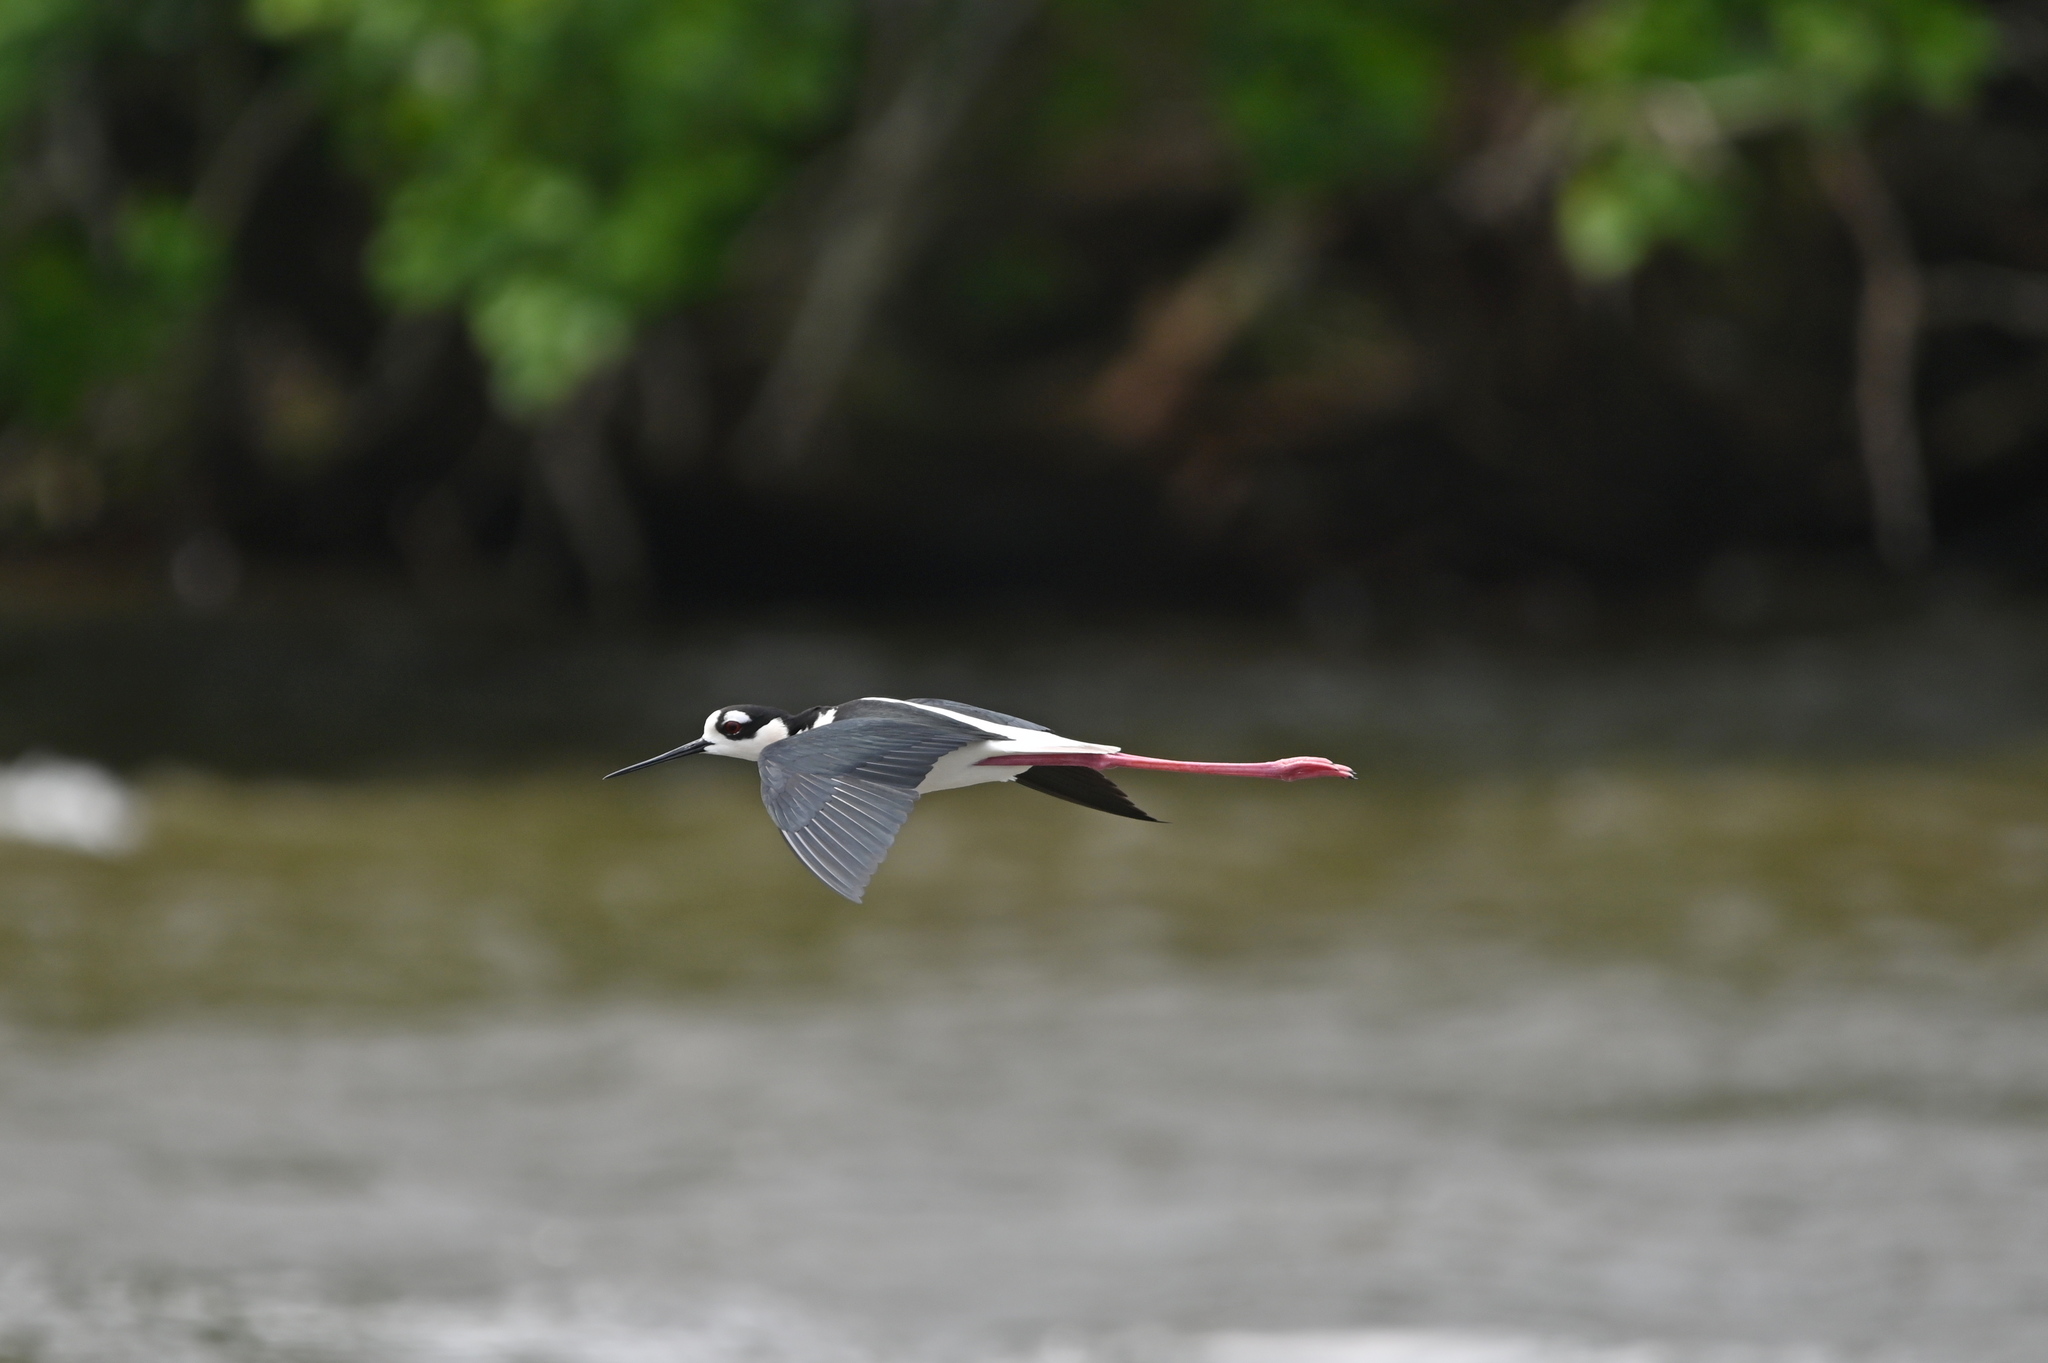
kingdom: Animalia
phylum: Chordata
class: Aves
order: Charadriiformes
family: Recurvirostridae
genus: Himantopus
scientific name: Himantopus mexicanus
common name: Black-necked stilt
